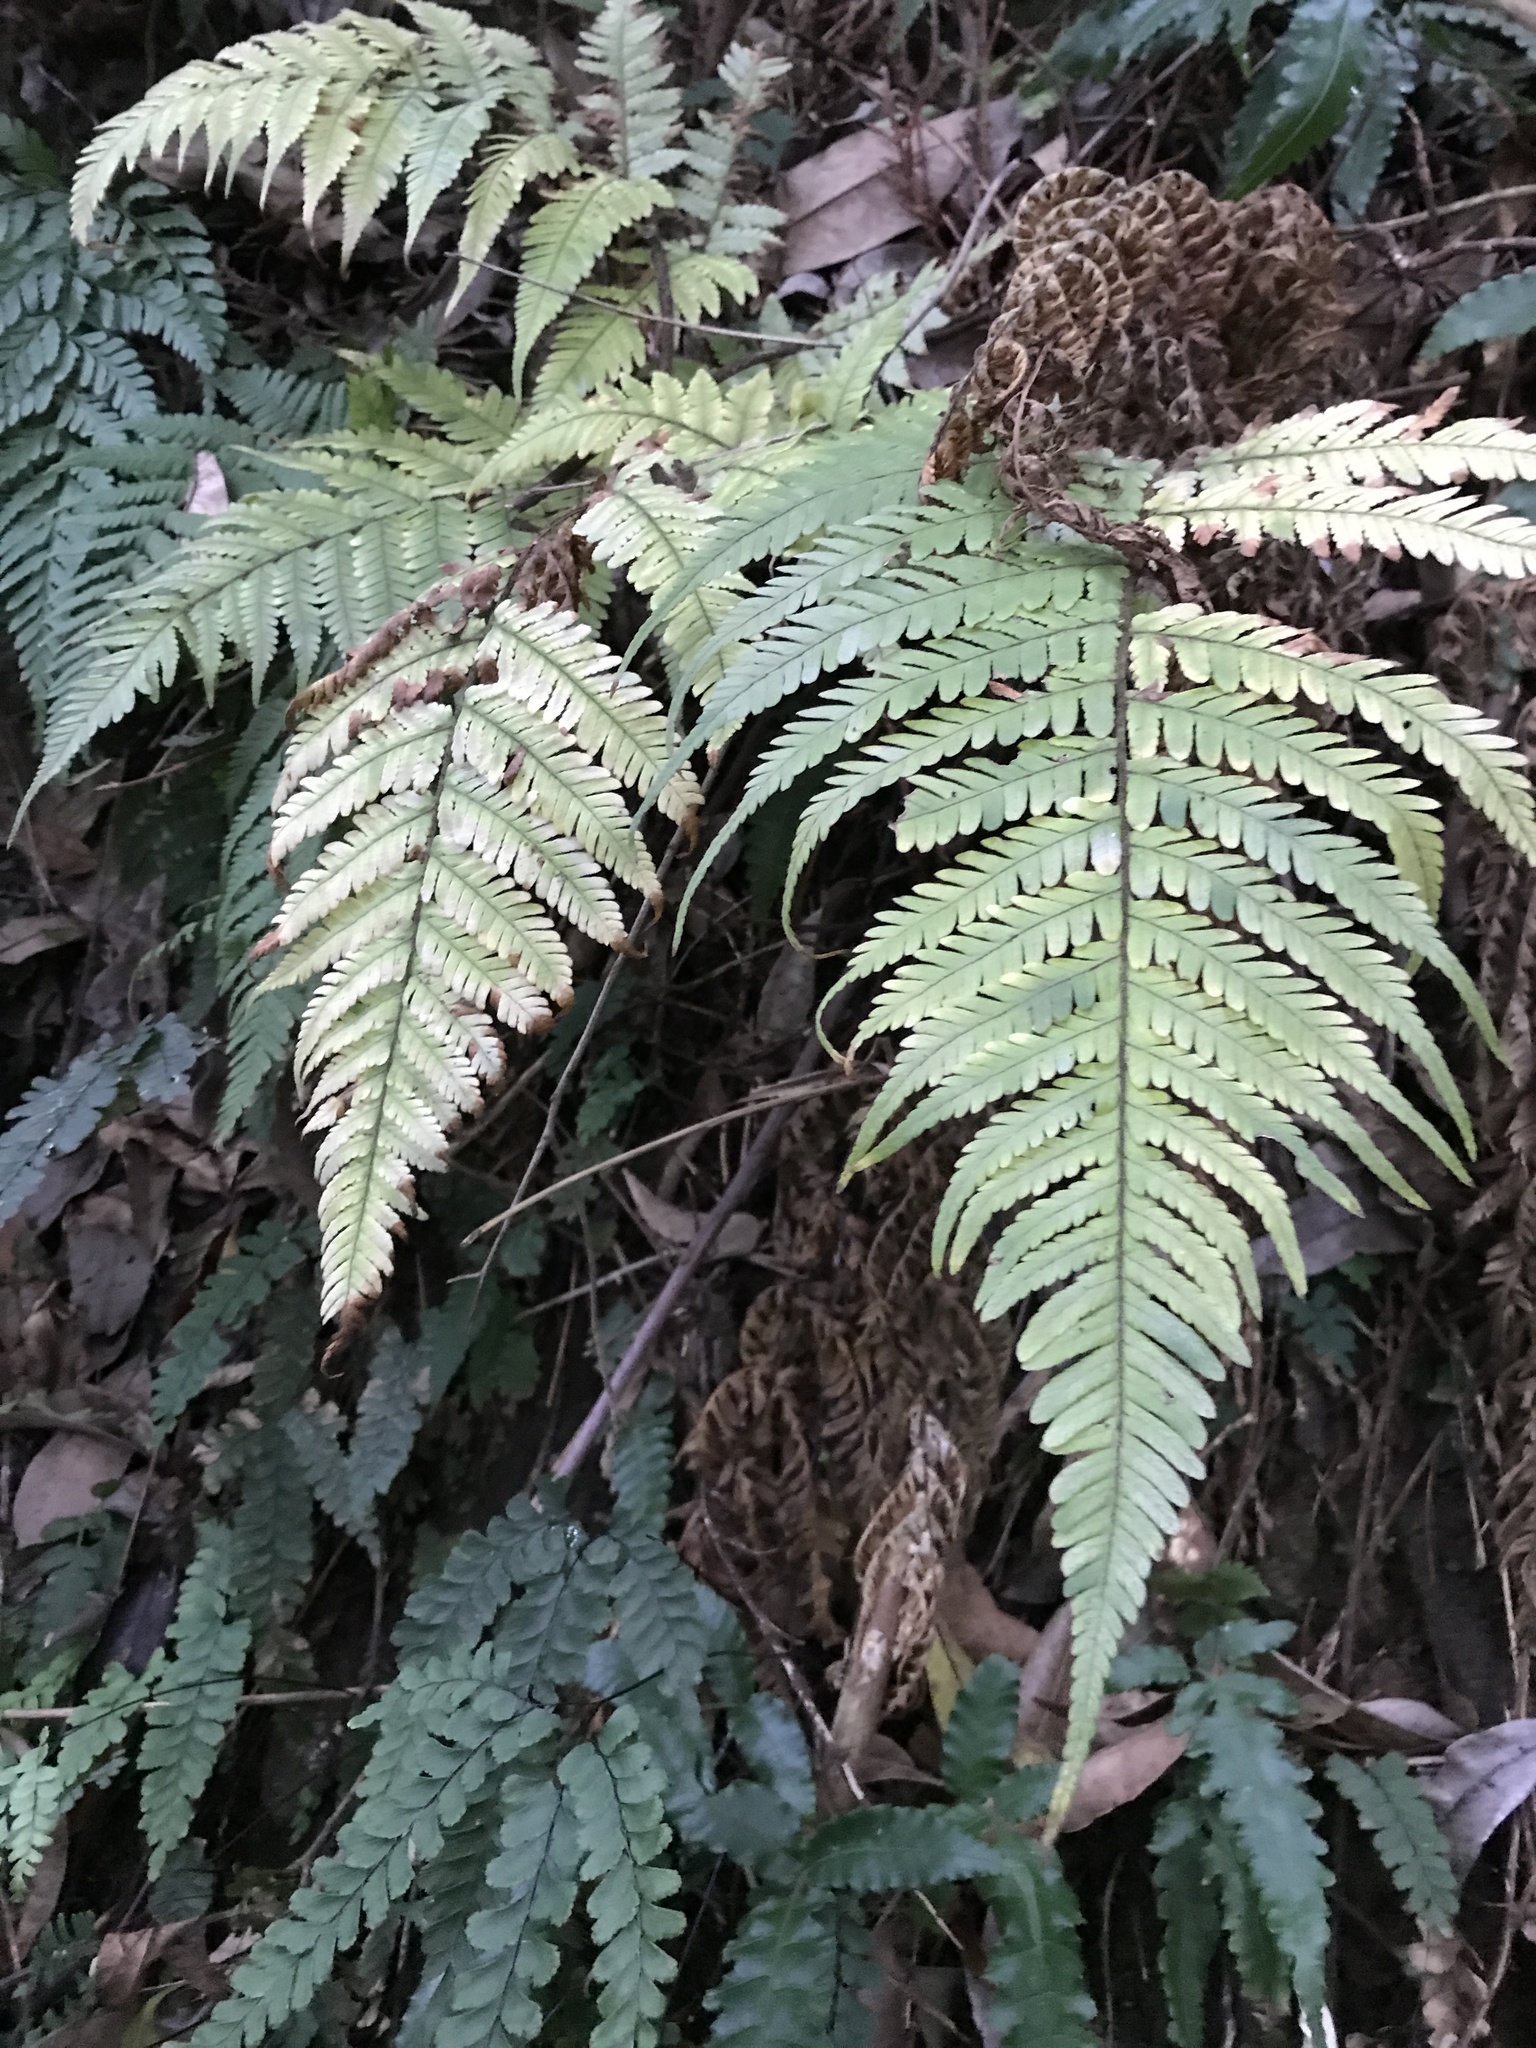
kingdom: Plantae
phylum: Tracheophyta
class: Polypodiopsida
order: Polypodiales
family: Dryopteridaceae
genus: Dryopteris
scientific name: Dryopteris sordidipes
